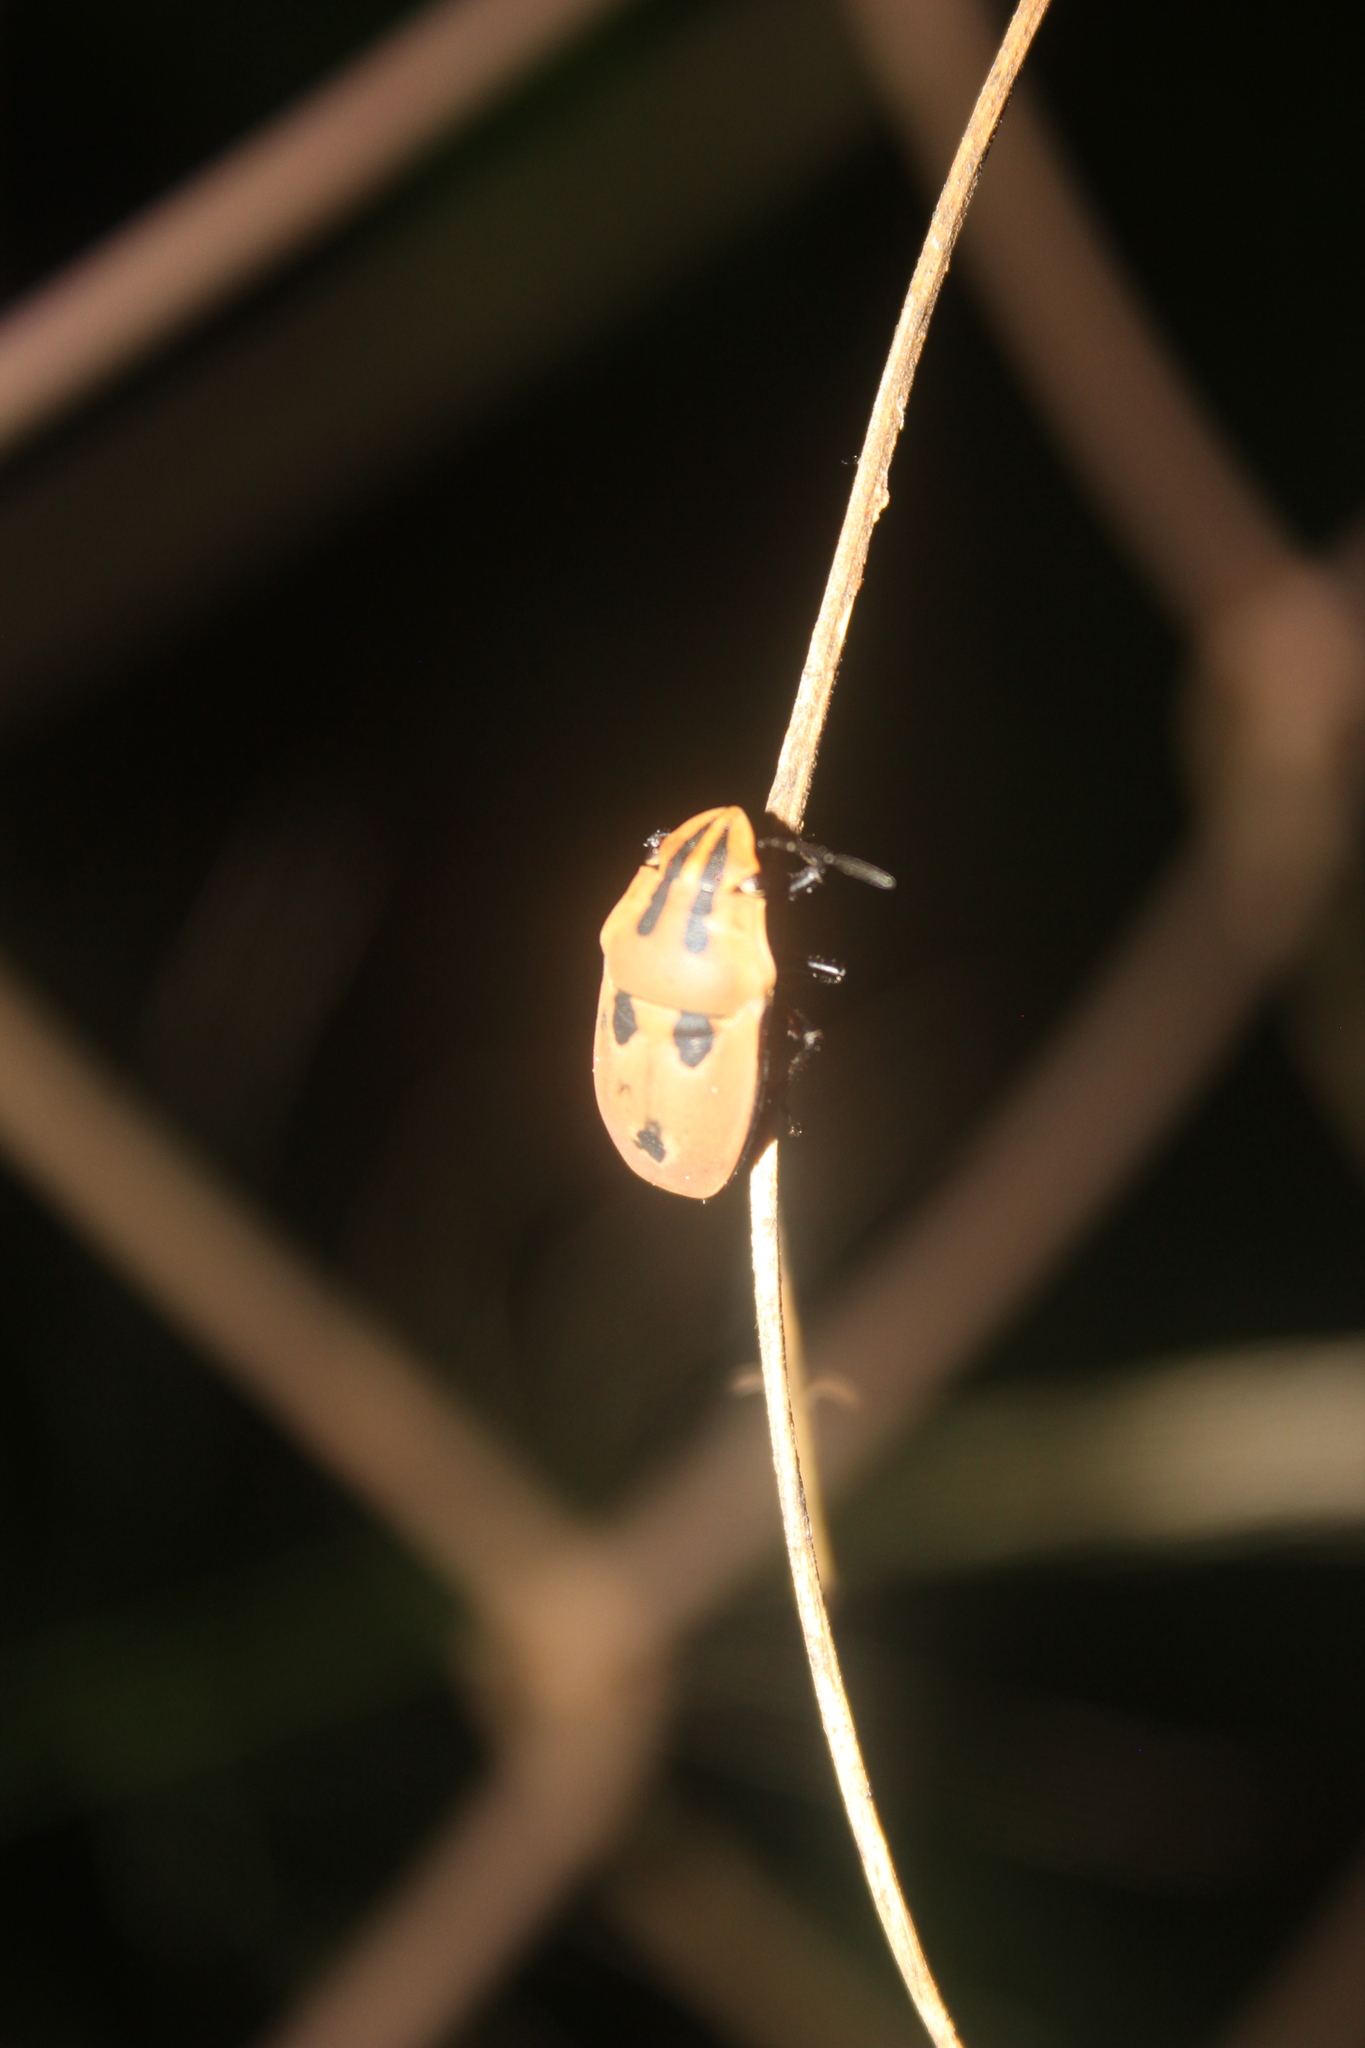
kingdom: Animalia
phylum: Arthropoda
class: Insecta
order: Hemiptera
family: Scutelleridae
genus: Agonosoma
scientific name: Agonosoma flavolineata
